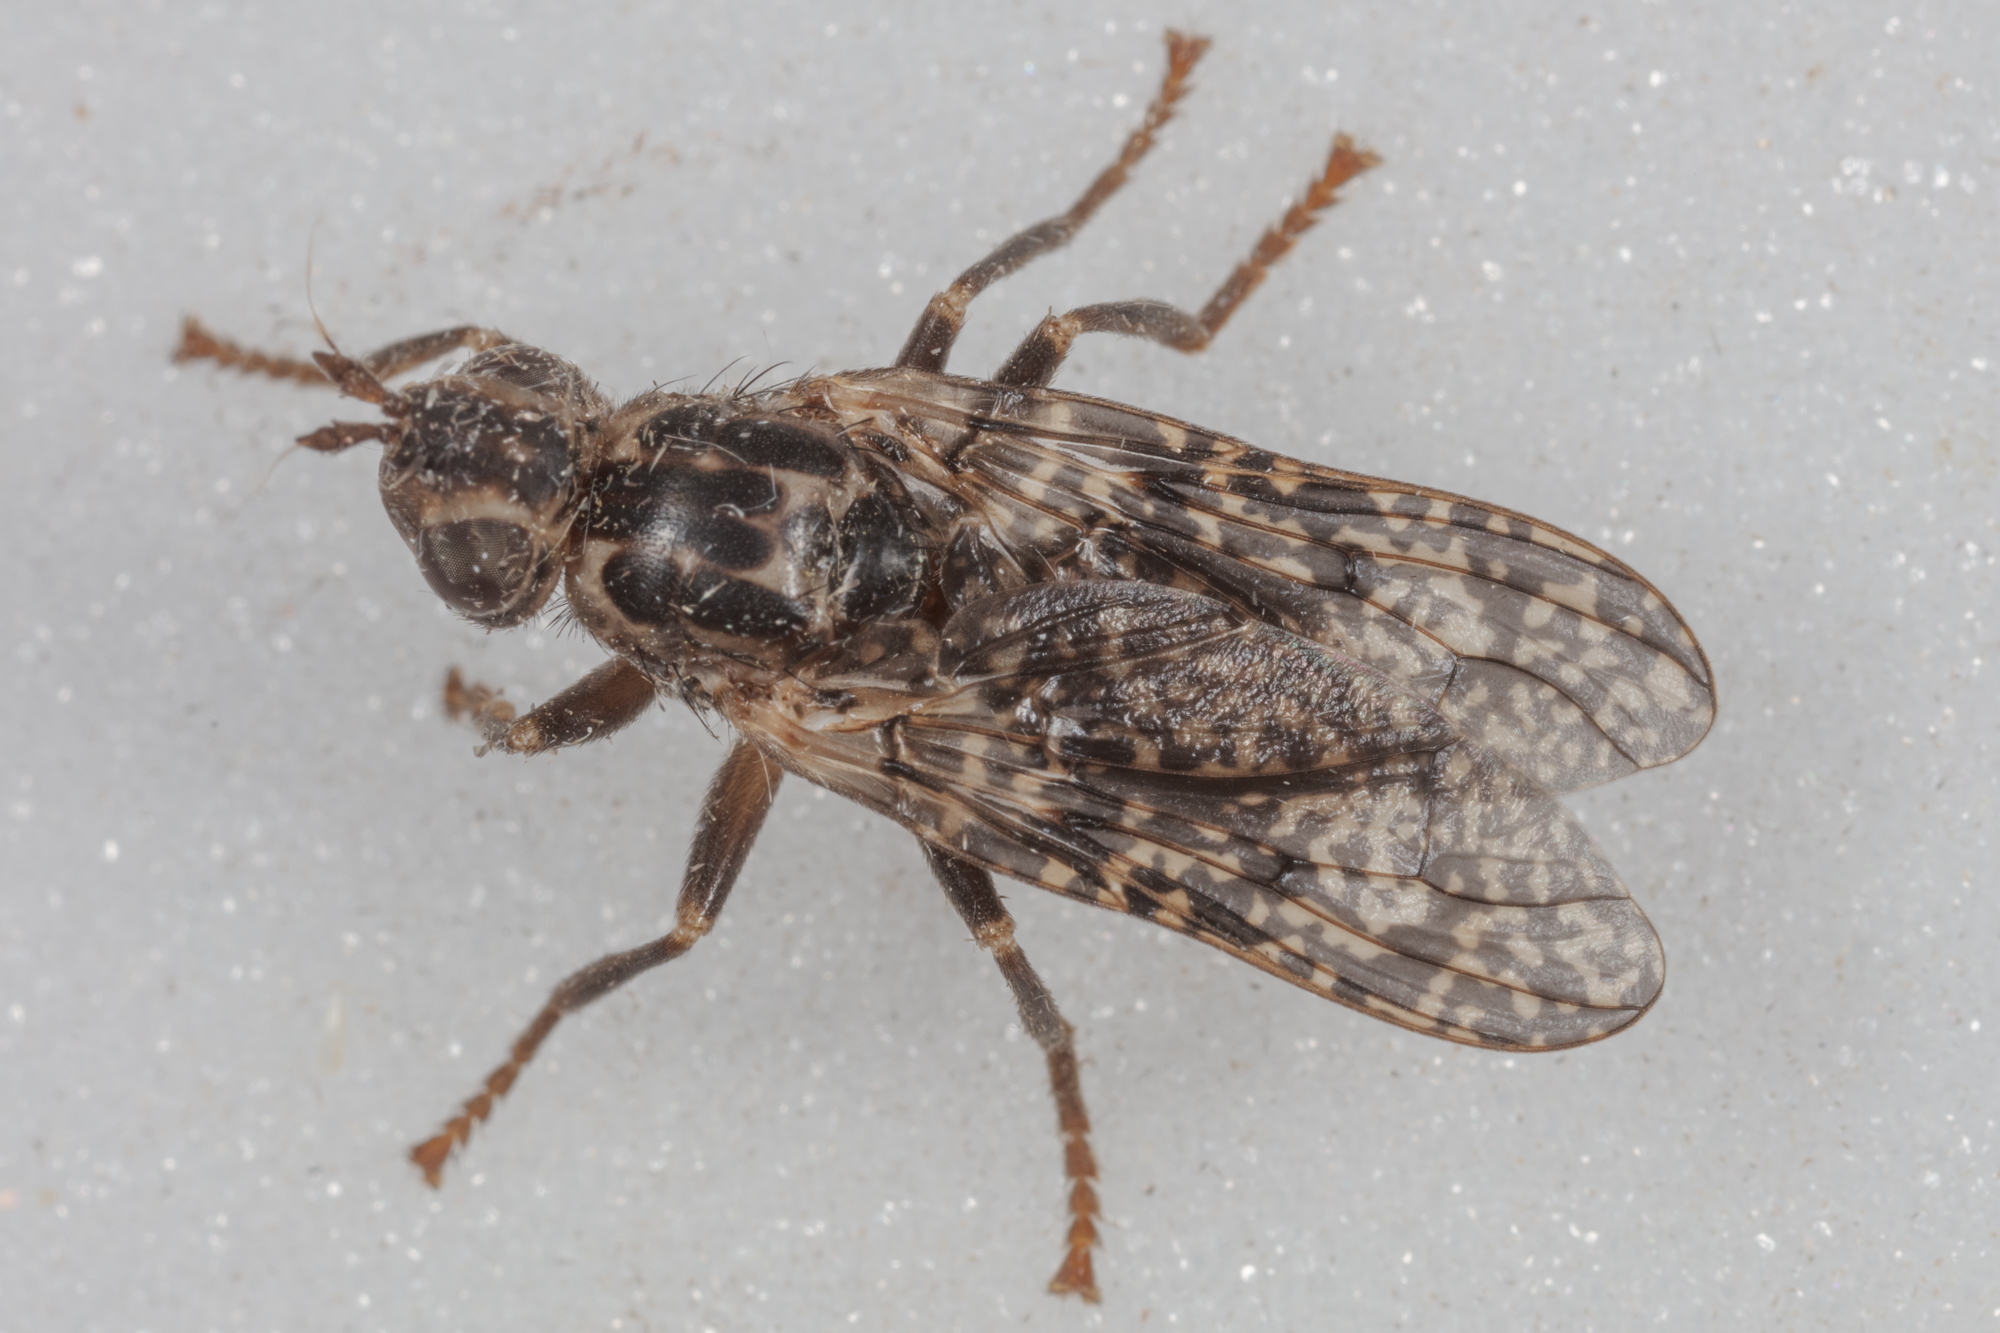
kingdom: Animalia
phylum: Arthropoda
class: Insecta
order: Diptera
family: Pyrgotidae
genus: Pyrgota
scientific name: Pyrgota valida
